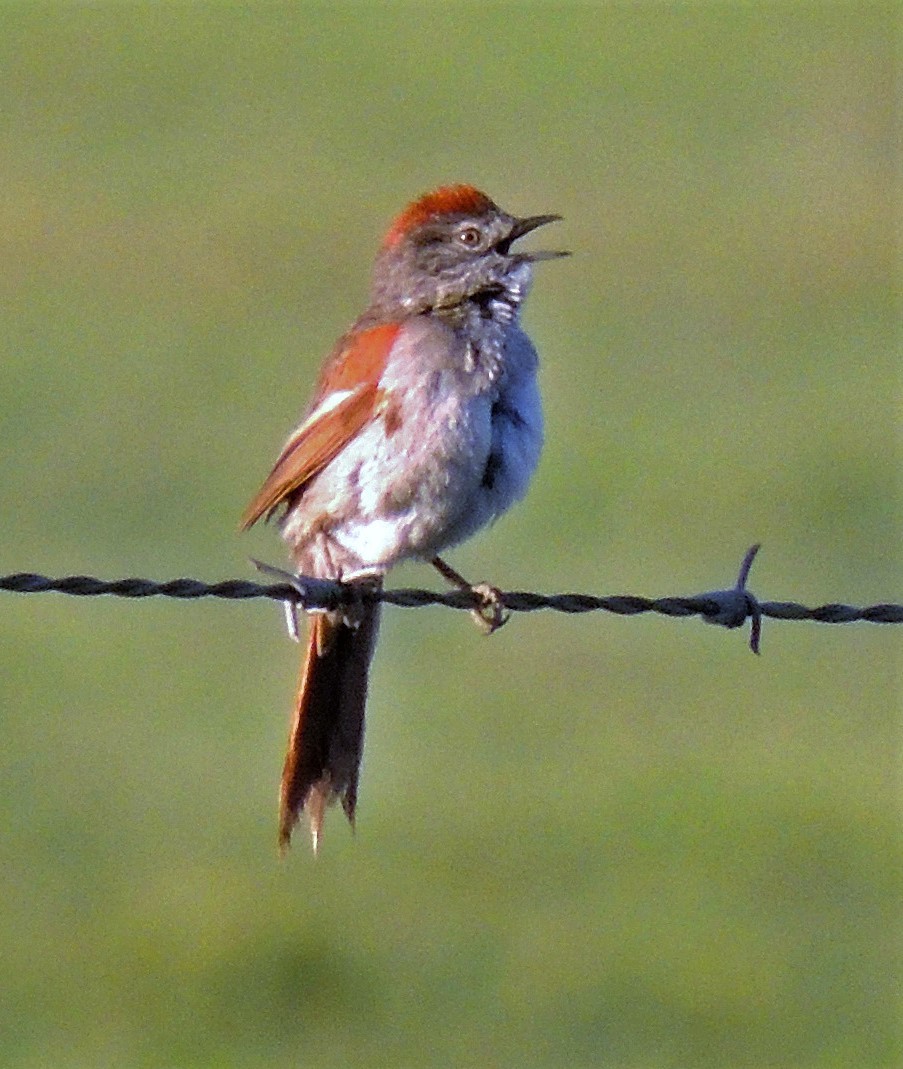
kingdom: Animalia
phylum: Chordata
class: Aves
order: Passeriformes
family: Furnariidae
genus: Synallaxis
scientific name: Synallaxis frontalis
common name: Sooty-fronted spinetail
